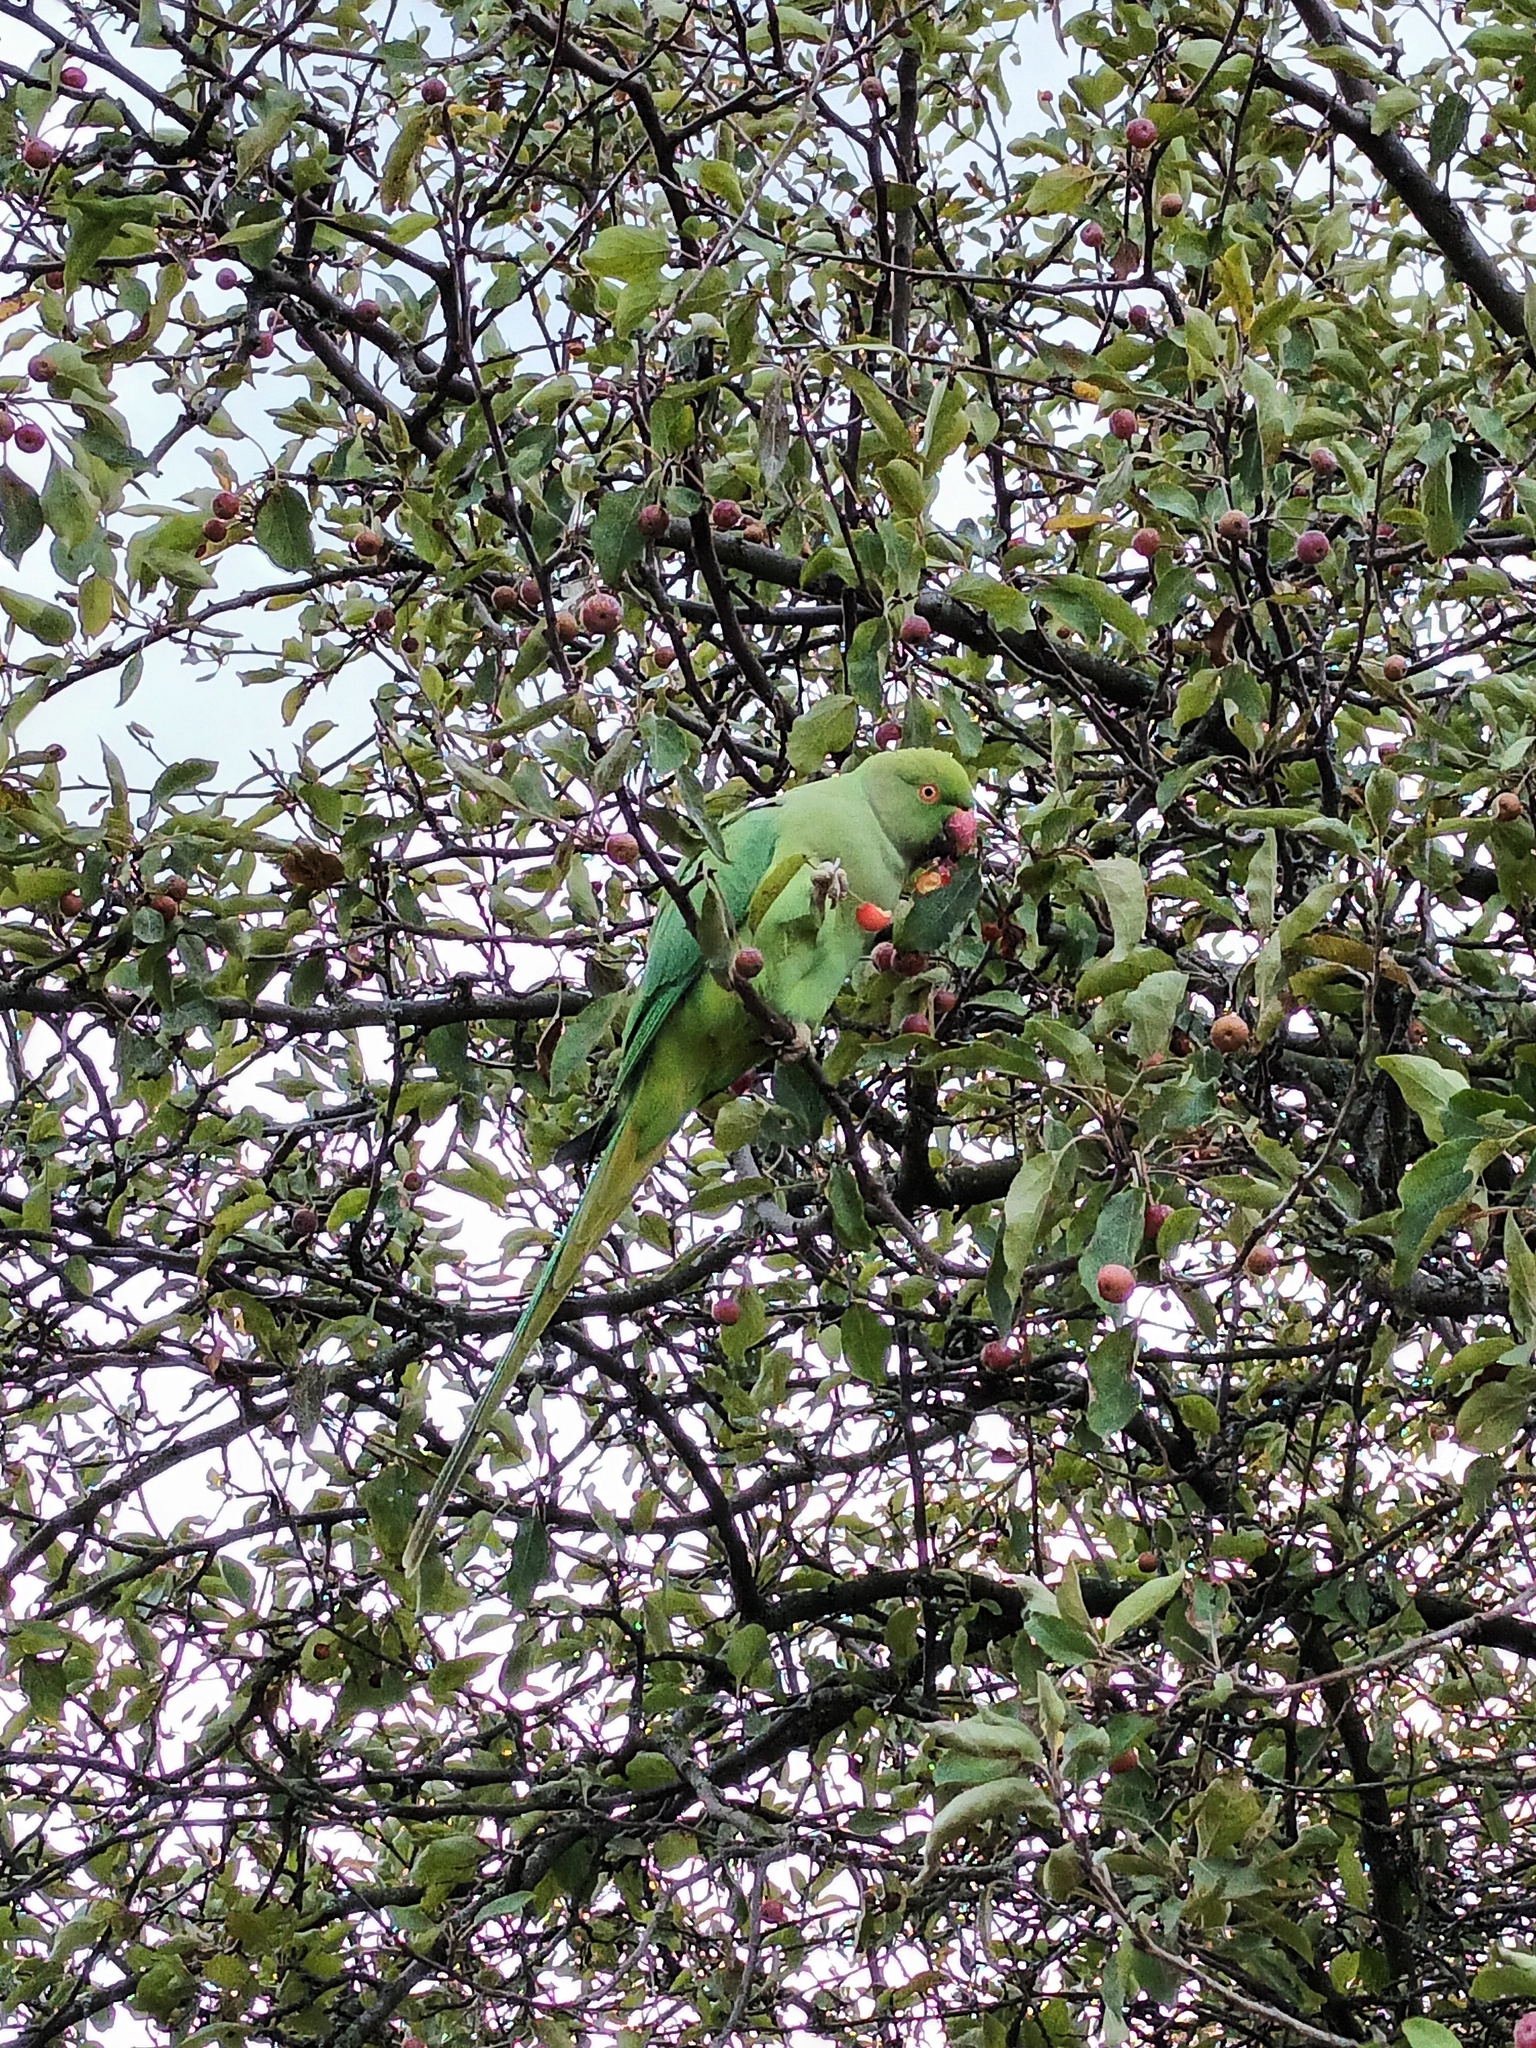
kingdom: Animalia
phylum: Chordata
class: Aves
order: Psittaciformes
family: Psittacidae
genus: Psittacula
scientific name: Psittacula krameri
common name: Rose-ringed parakeet
